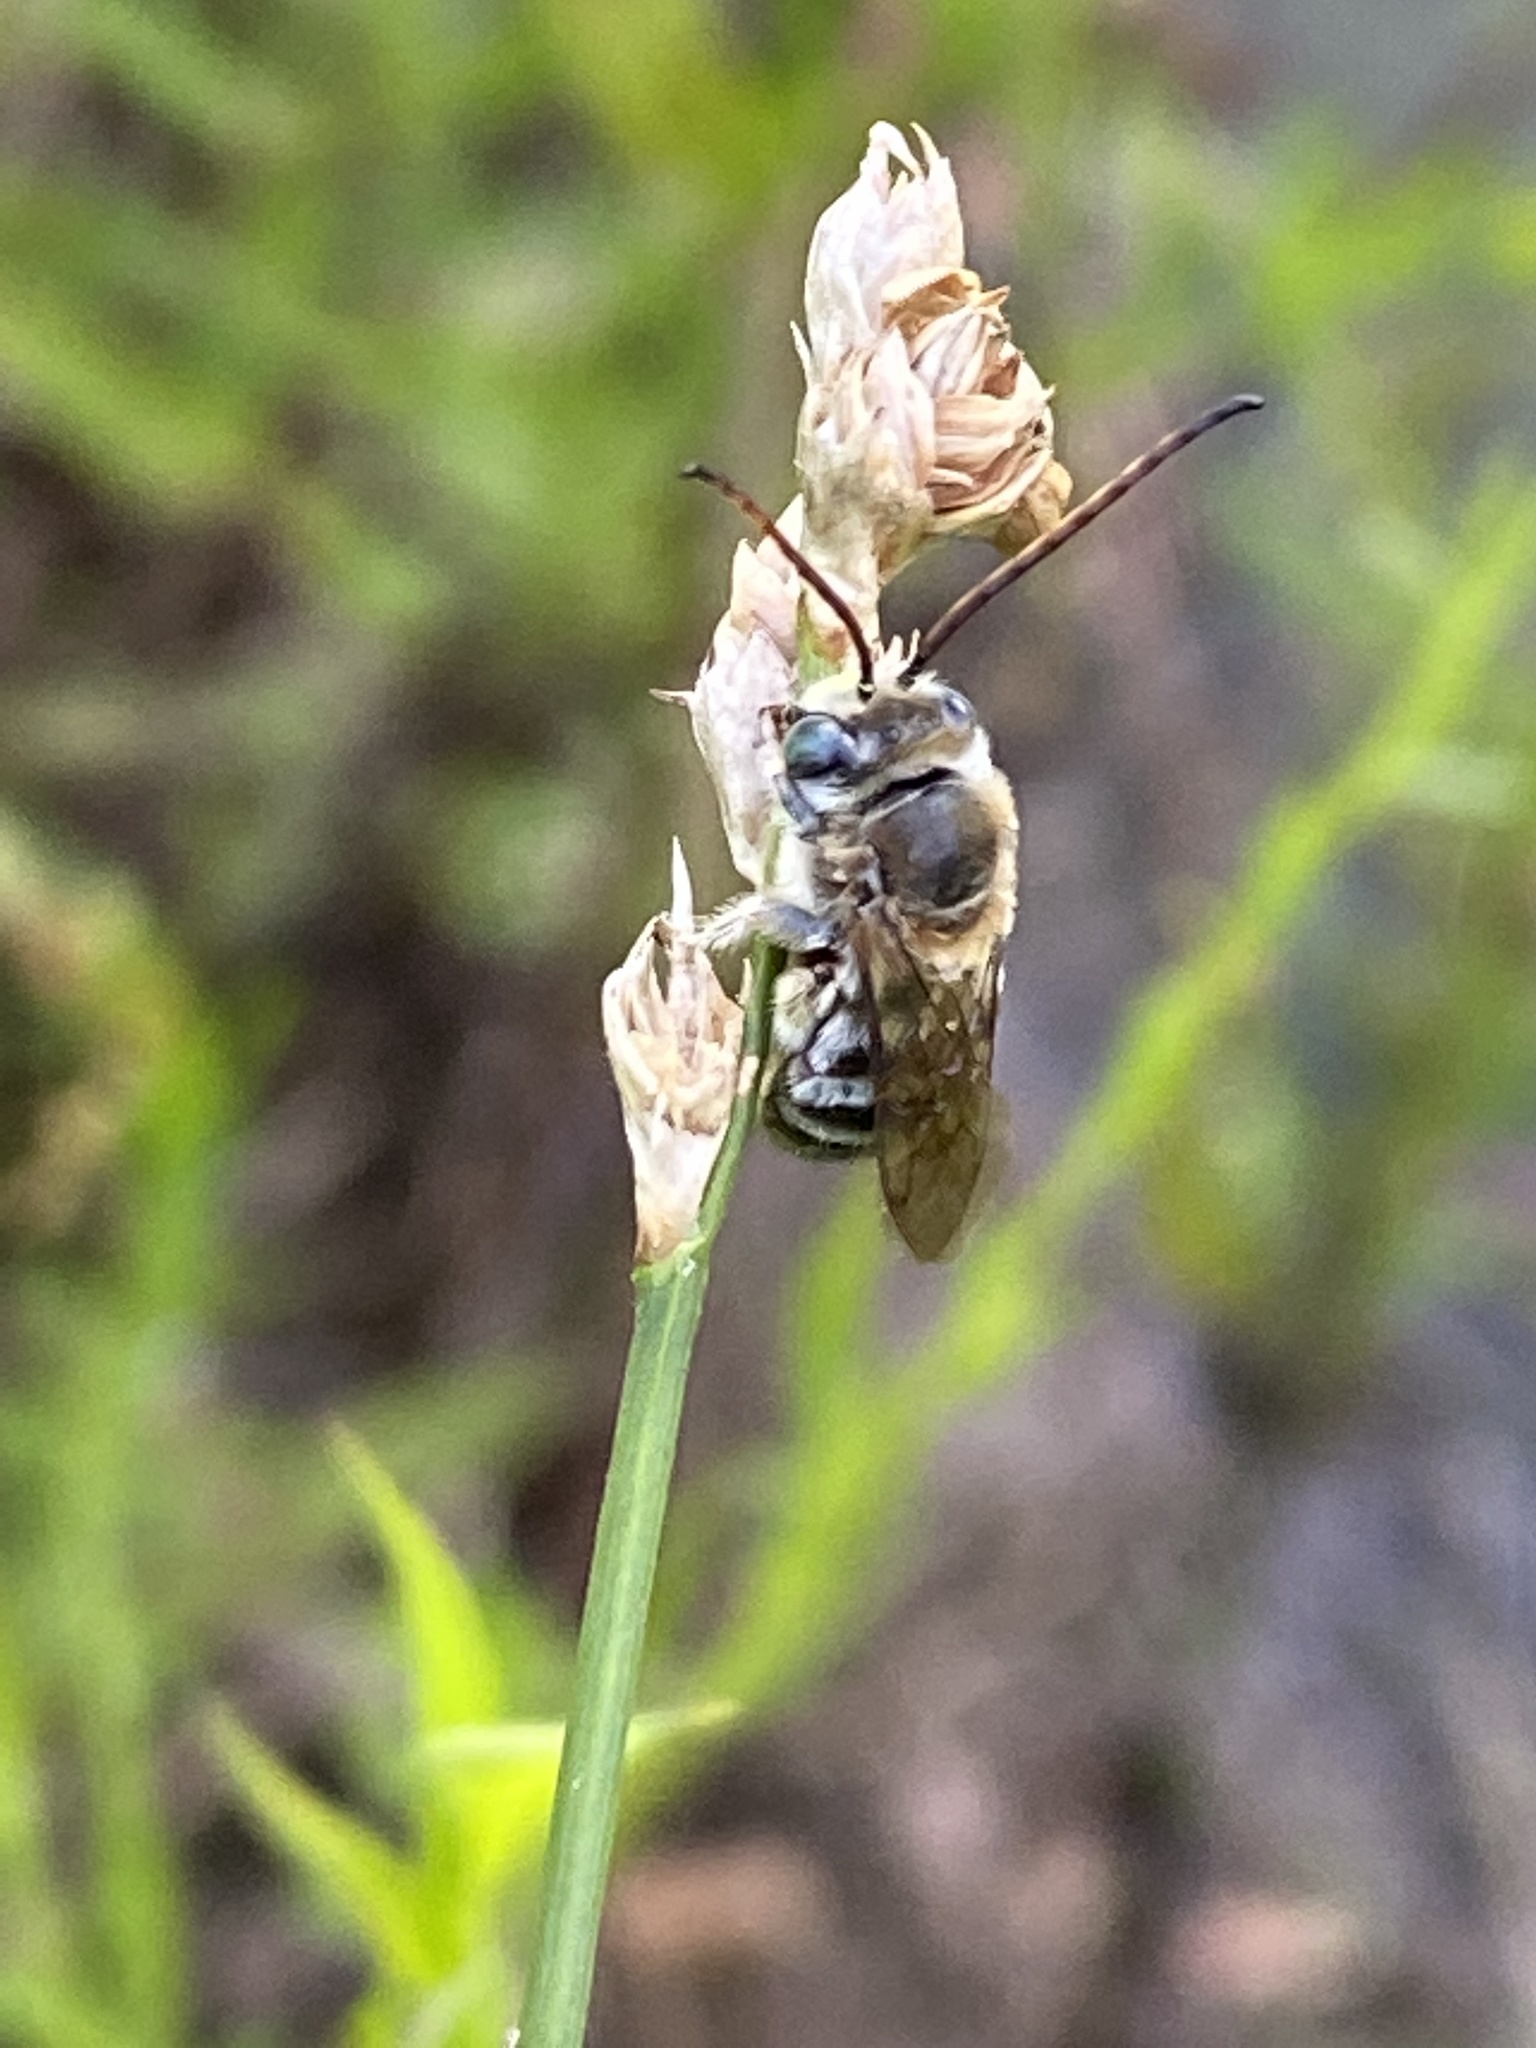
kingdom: Animalia
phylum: Arthropoda
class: Insecta
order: Hymenoptera
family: Apidae
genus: Florilegus
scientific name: Florilegus condignus
